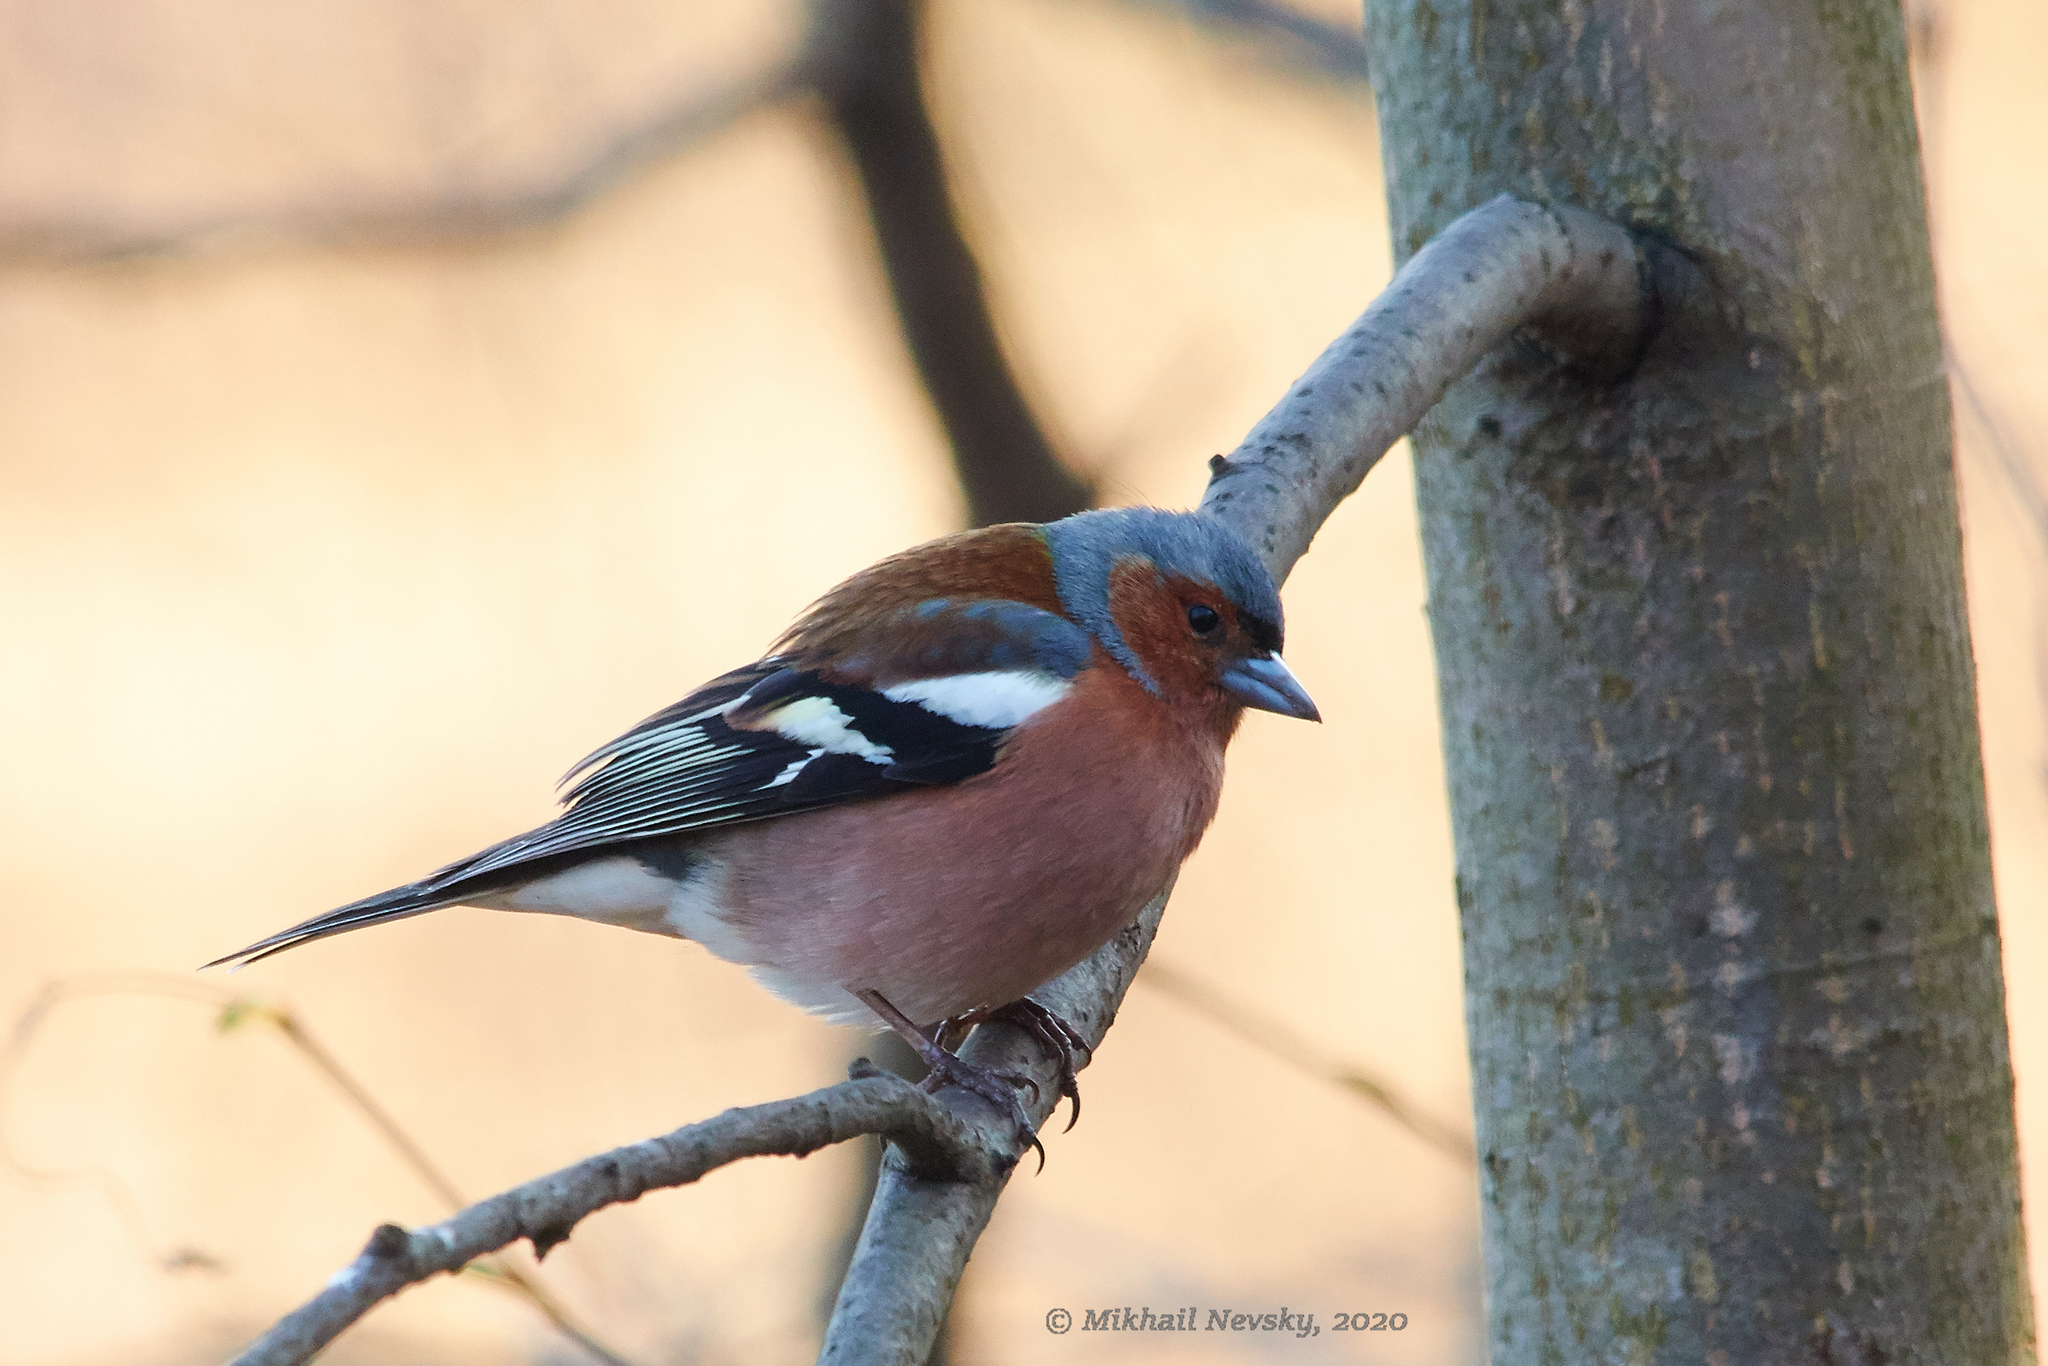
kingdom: Animalia
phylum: Chordata
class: Aves
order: Passeriformes
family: Fringillidae
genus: Fringilla
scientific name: Fringilla coelebs
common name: Common chaffinch
